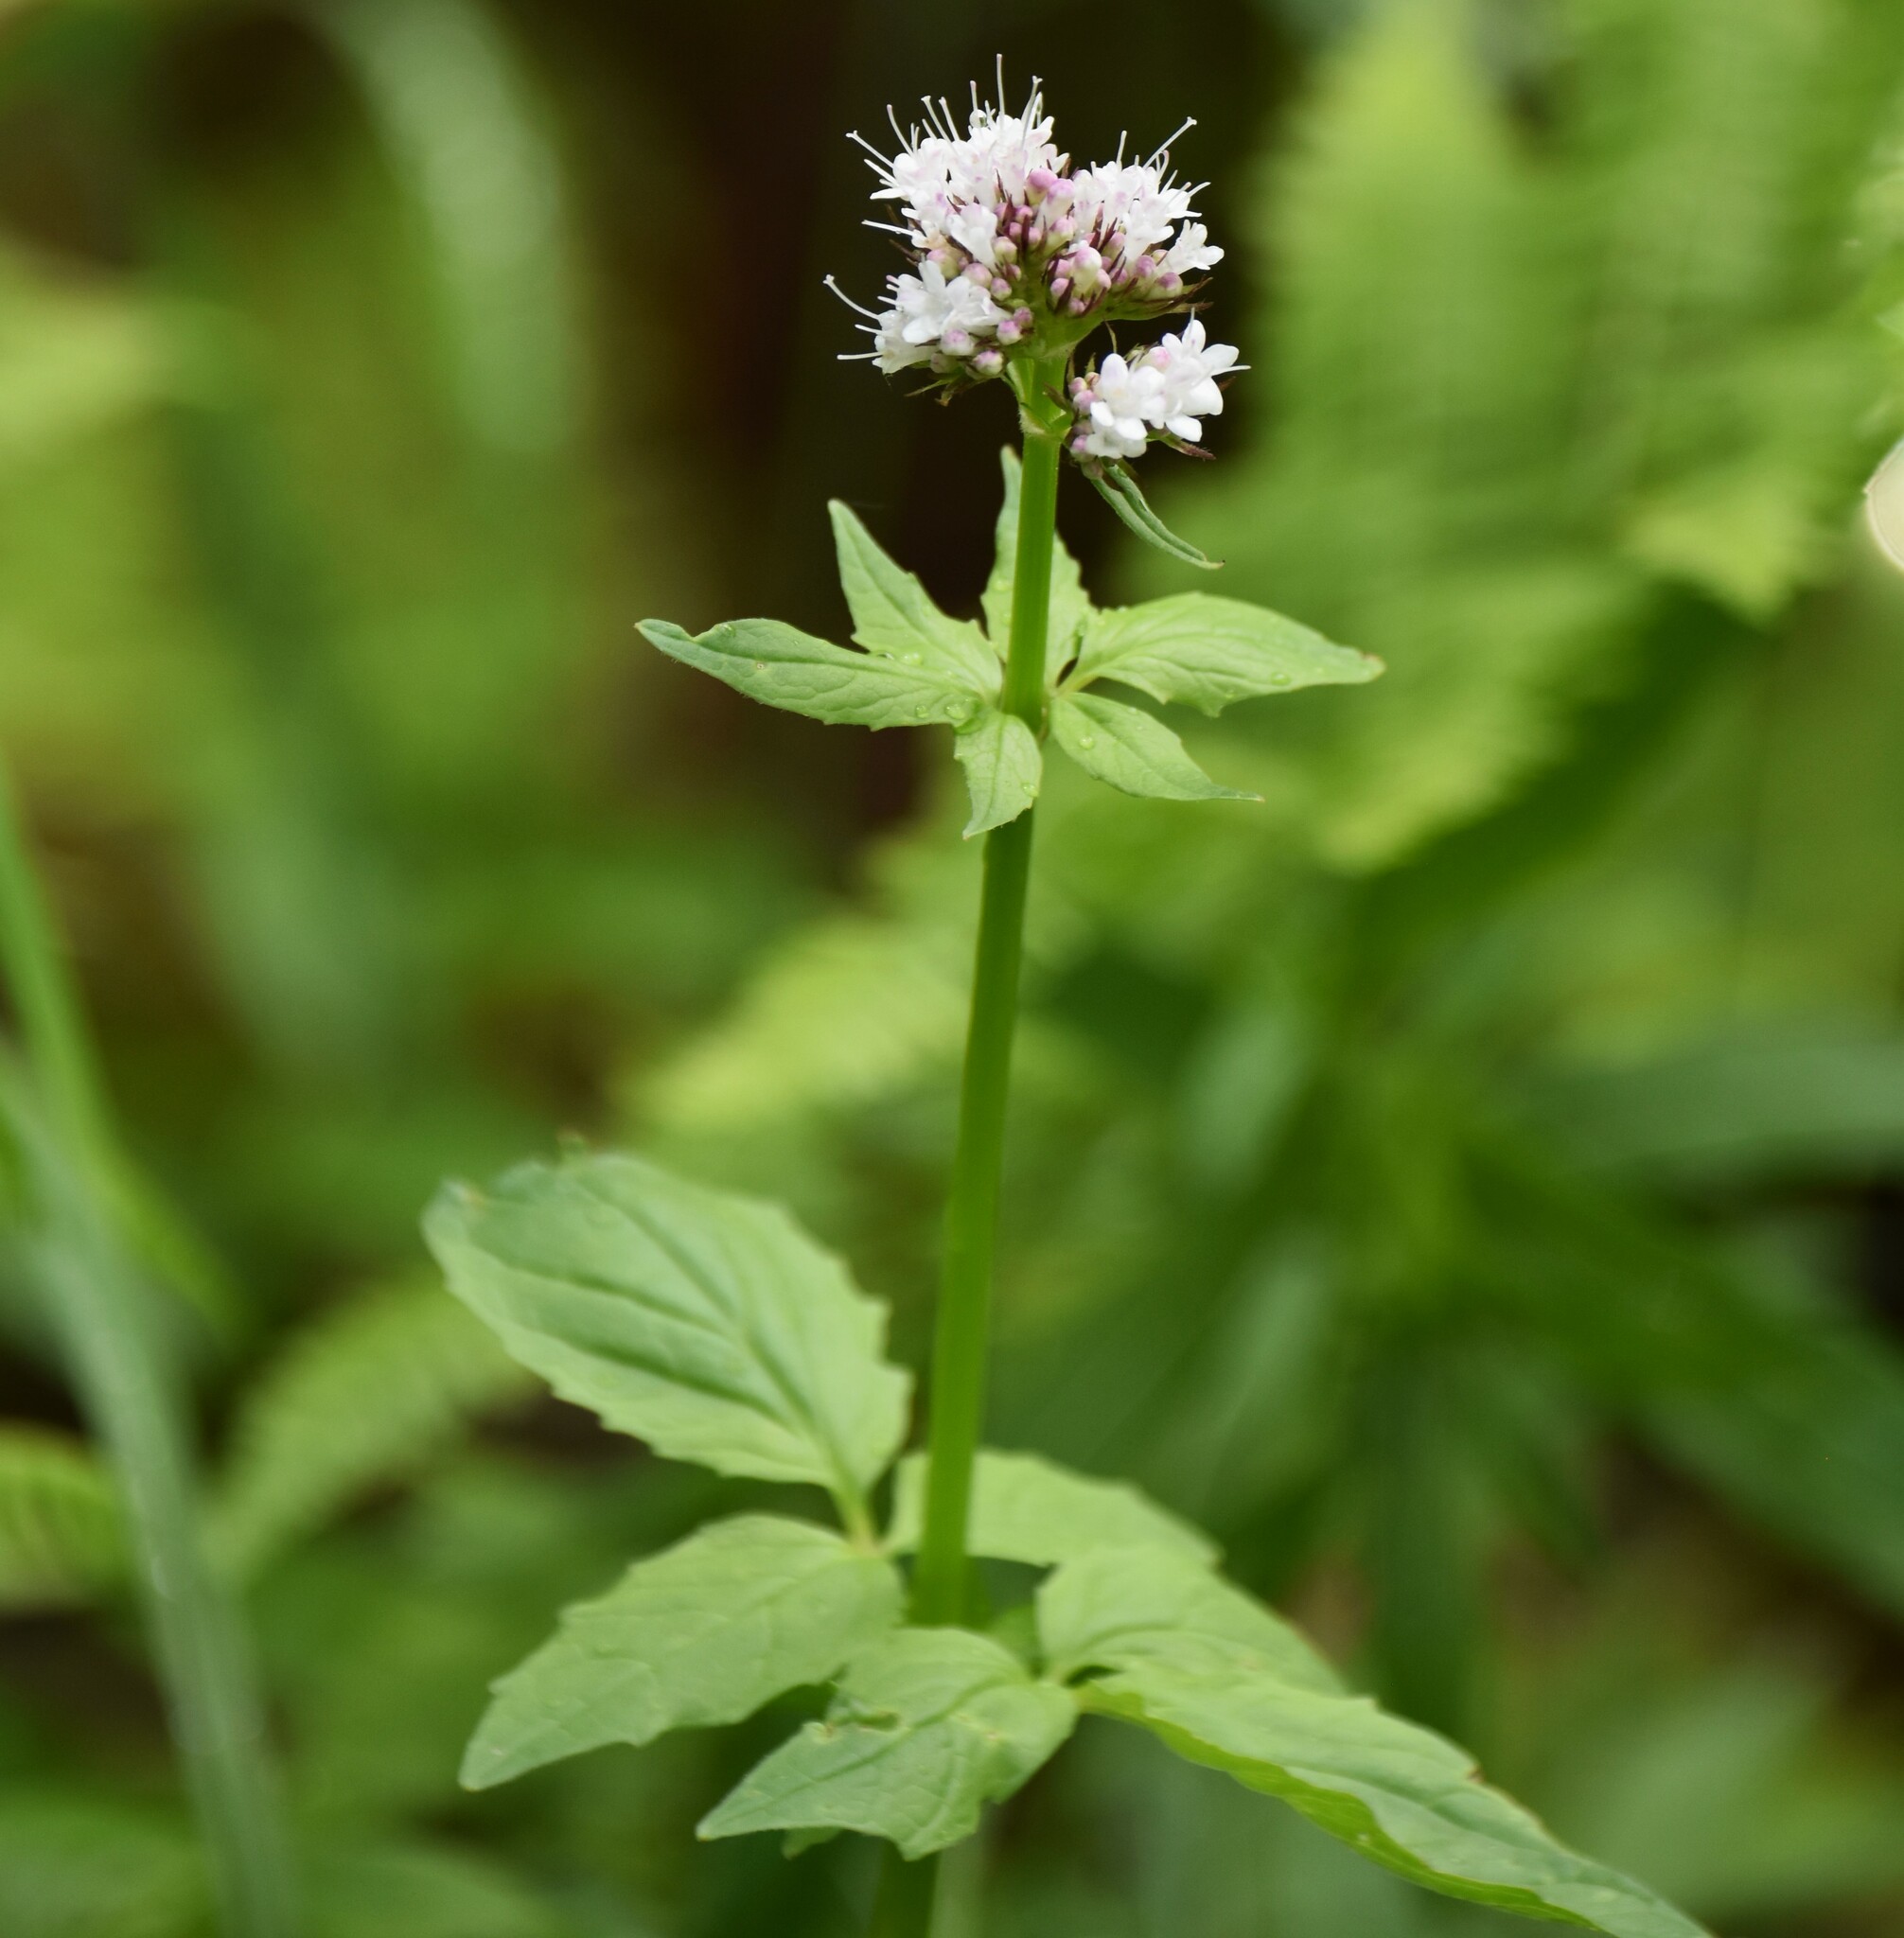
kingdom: Plantae
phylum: Tracheophyta
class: Magnoliopsida
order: Dipsacales
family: Caprifoliaceae
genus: Valeriana
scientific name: Valeriana sitchensis
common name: Pacific valerian
